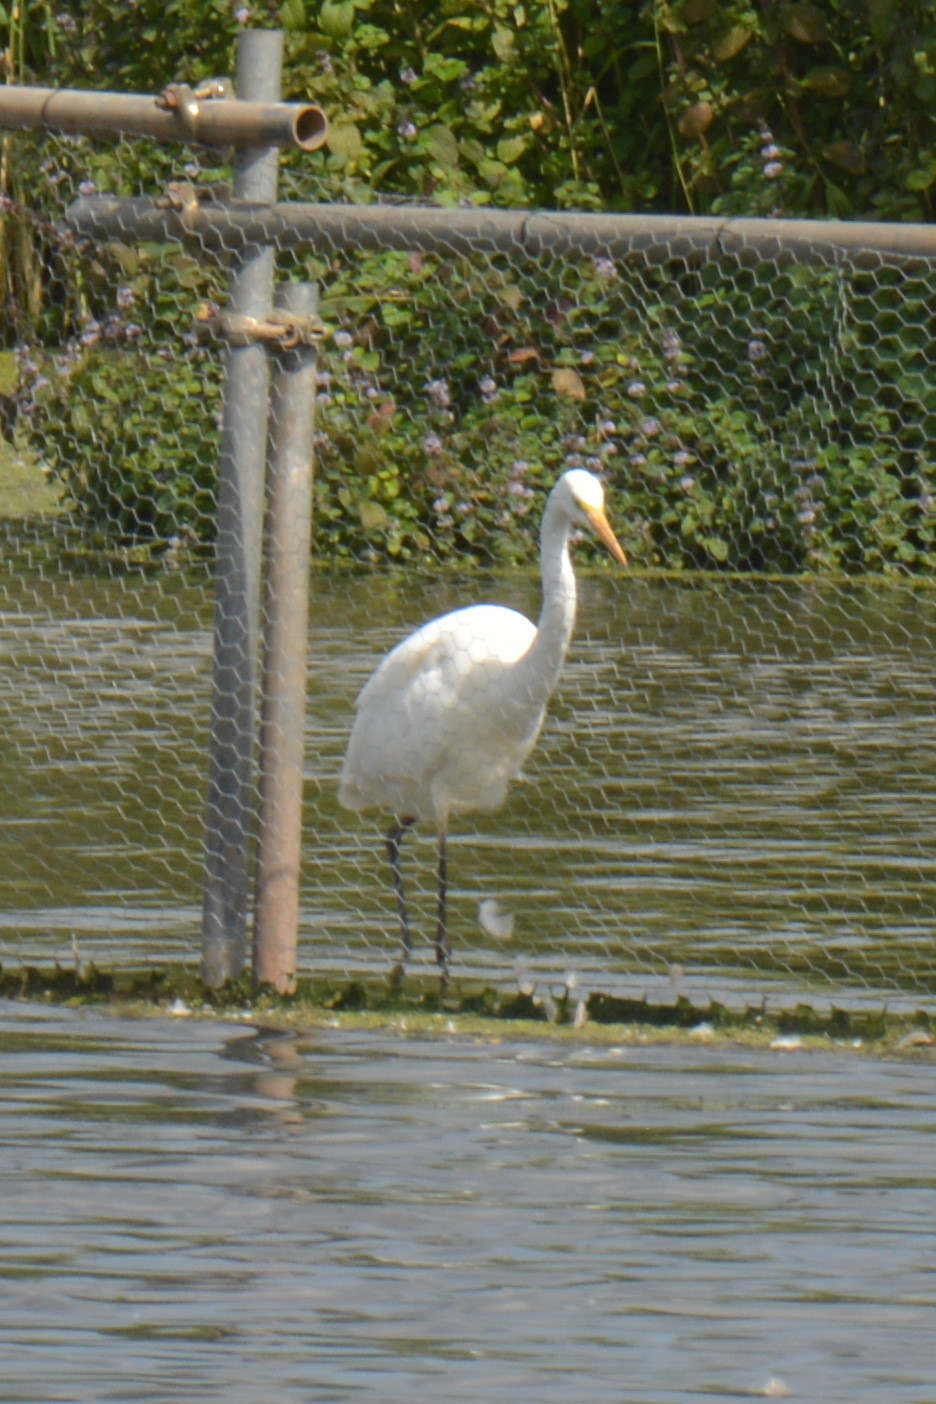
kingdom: Animalia
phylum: Chordata
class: Aves
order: Pelecaniformes
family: Ardeidae
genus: Ardea
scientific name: Ardea alba
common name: Great egret
